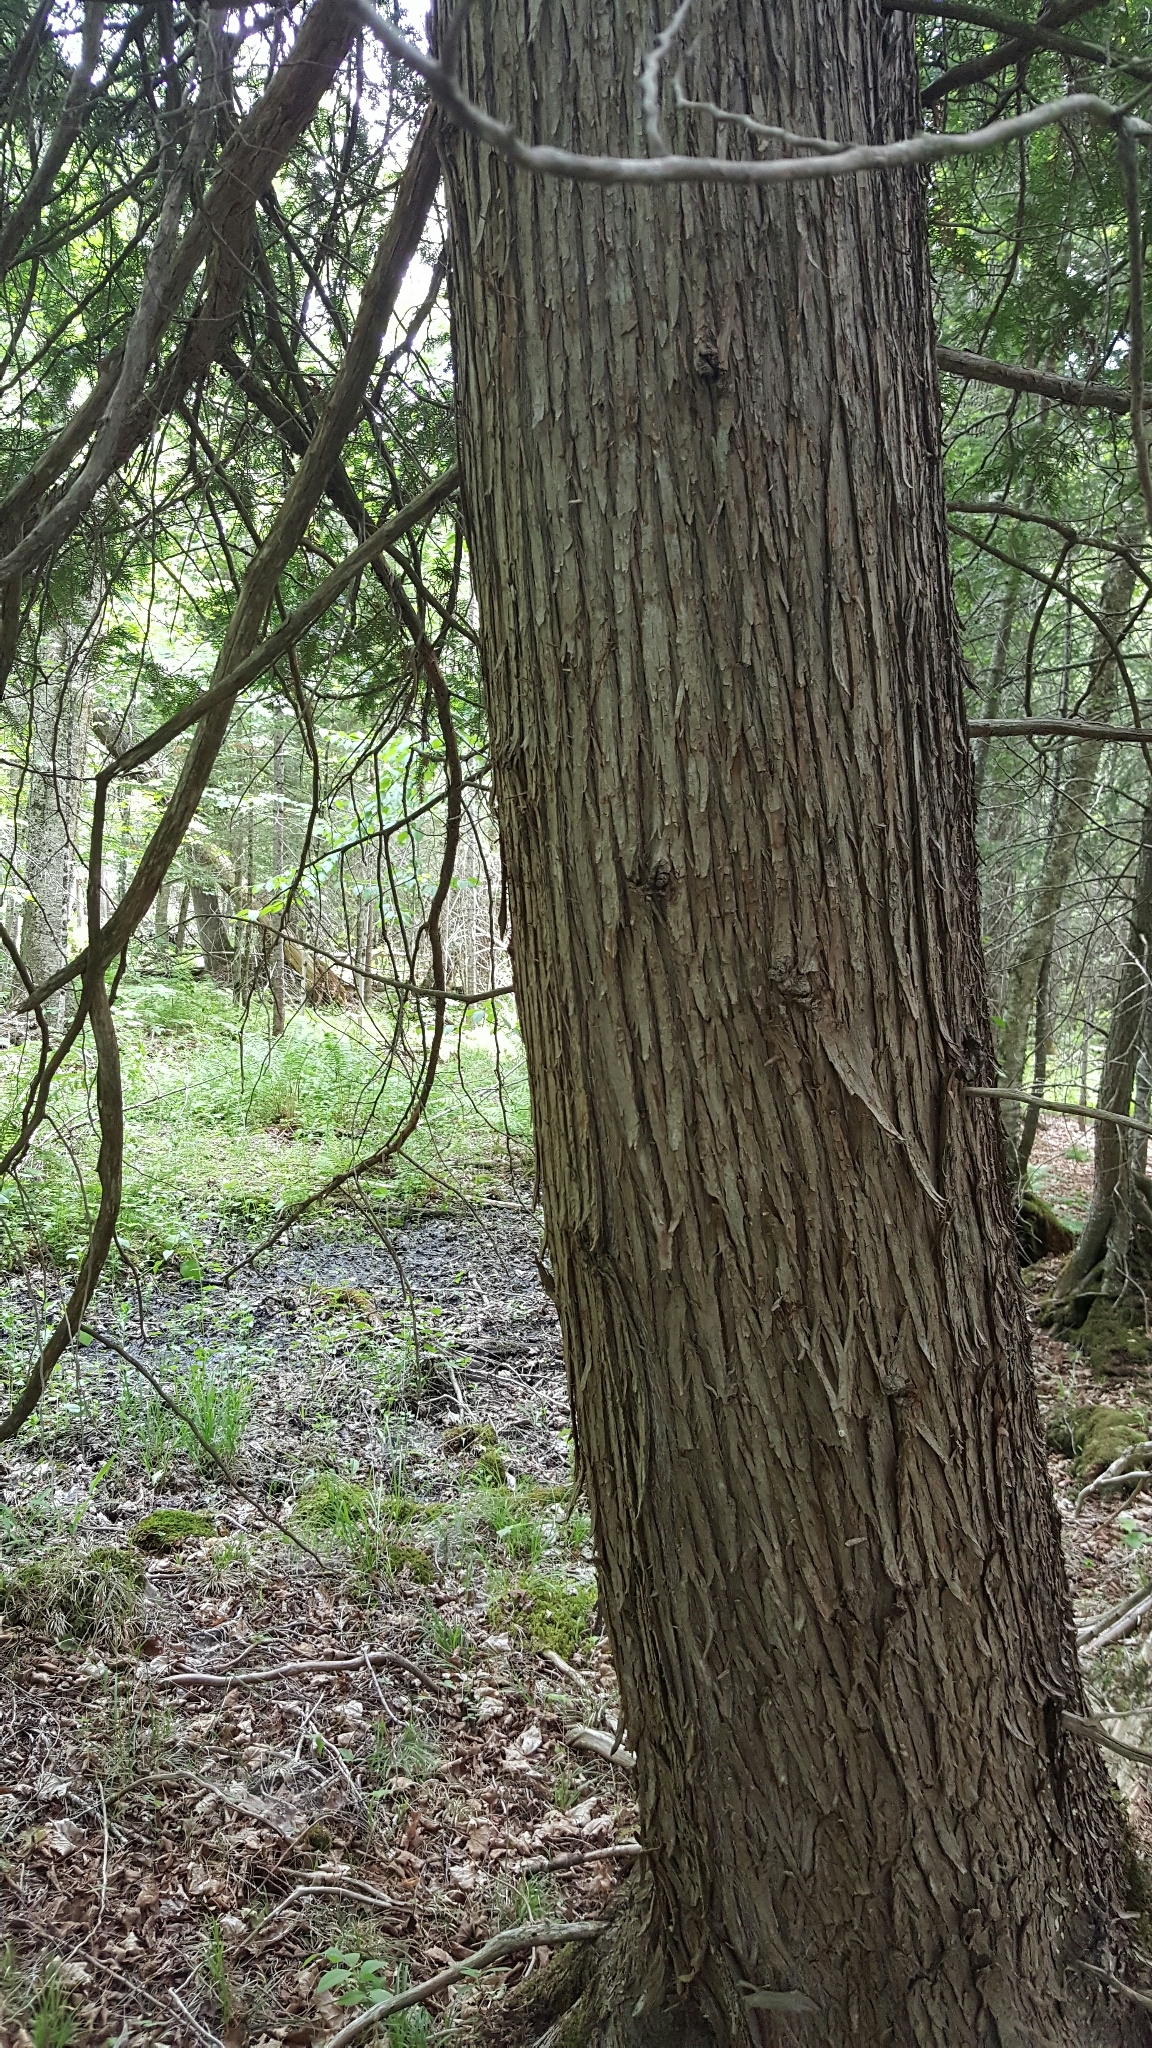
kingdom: Plantae
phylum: Tracheophyta
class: Pinopsida
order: Pinales
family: Cupressaceae
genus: Thuja
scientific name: Thuja occidentalis
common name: Northern white-cedar
